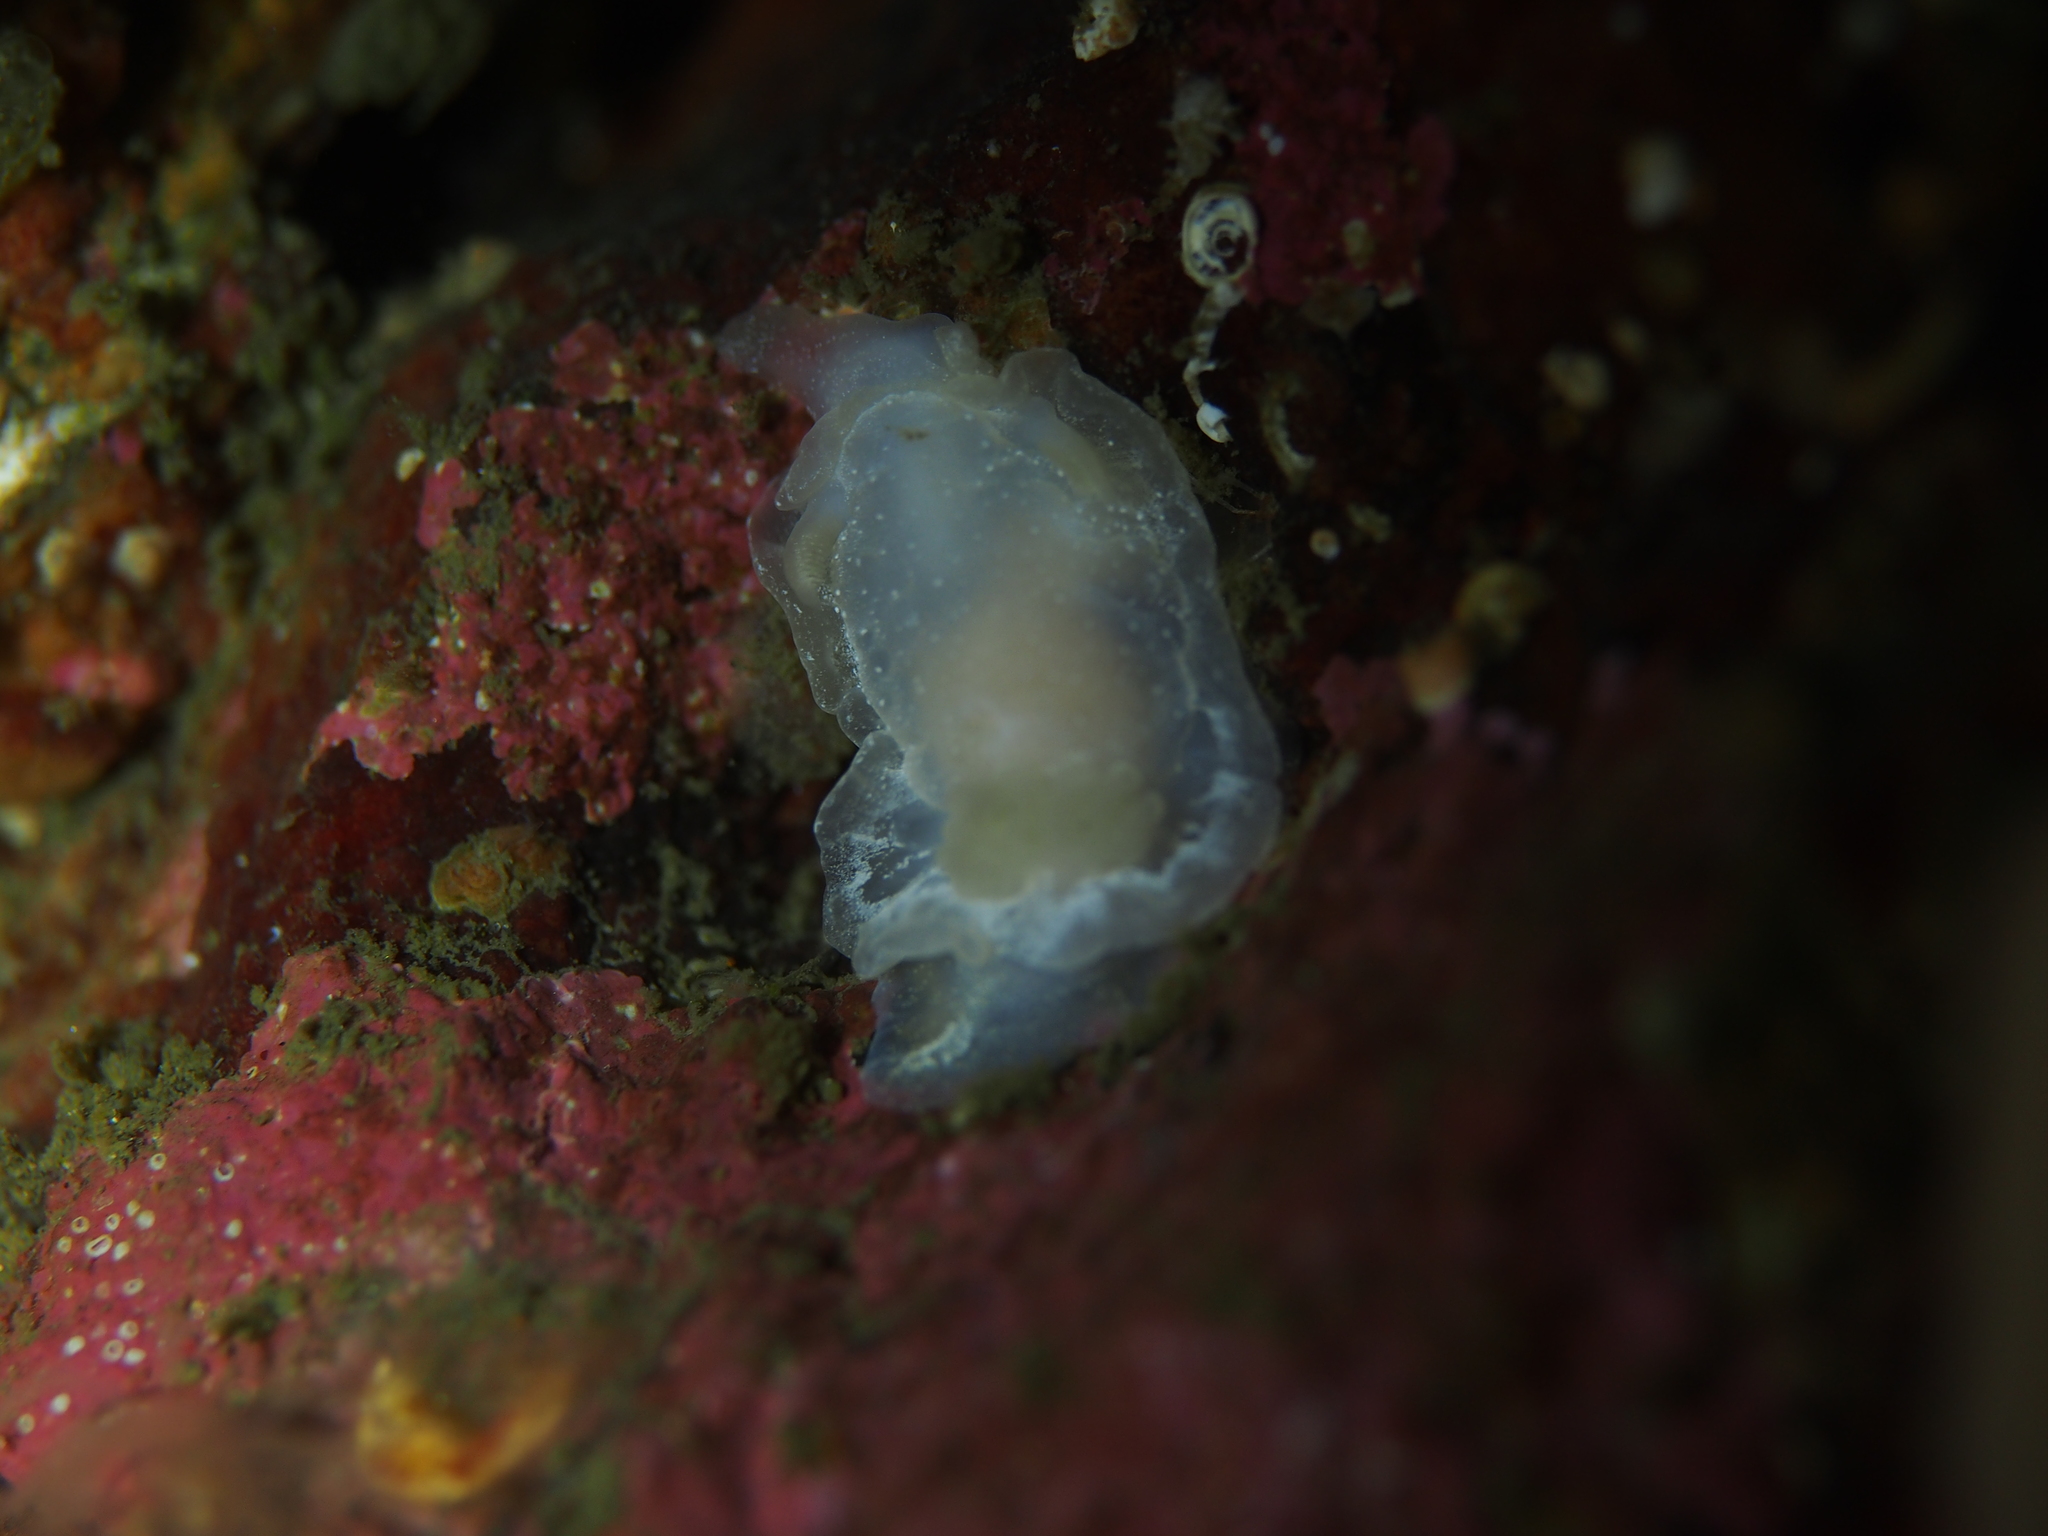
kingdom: Animalia
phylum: Mollusca
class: Gastropoda
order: Nudibranchia
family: Goniodorididae
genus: Okenia
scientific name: Okenia
